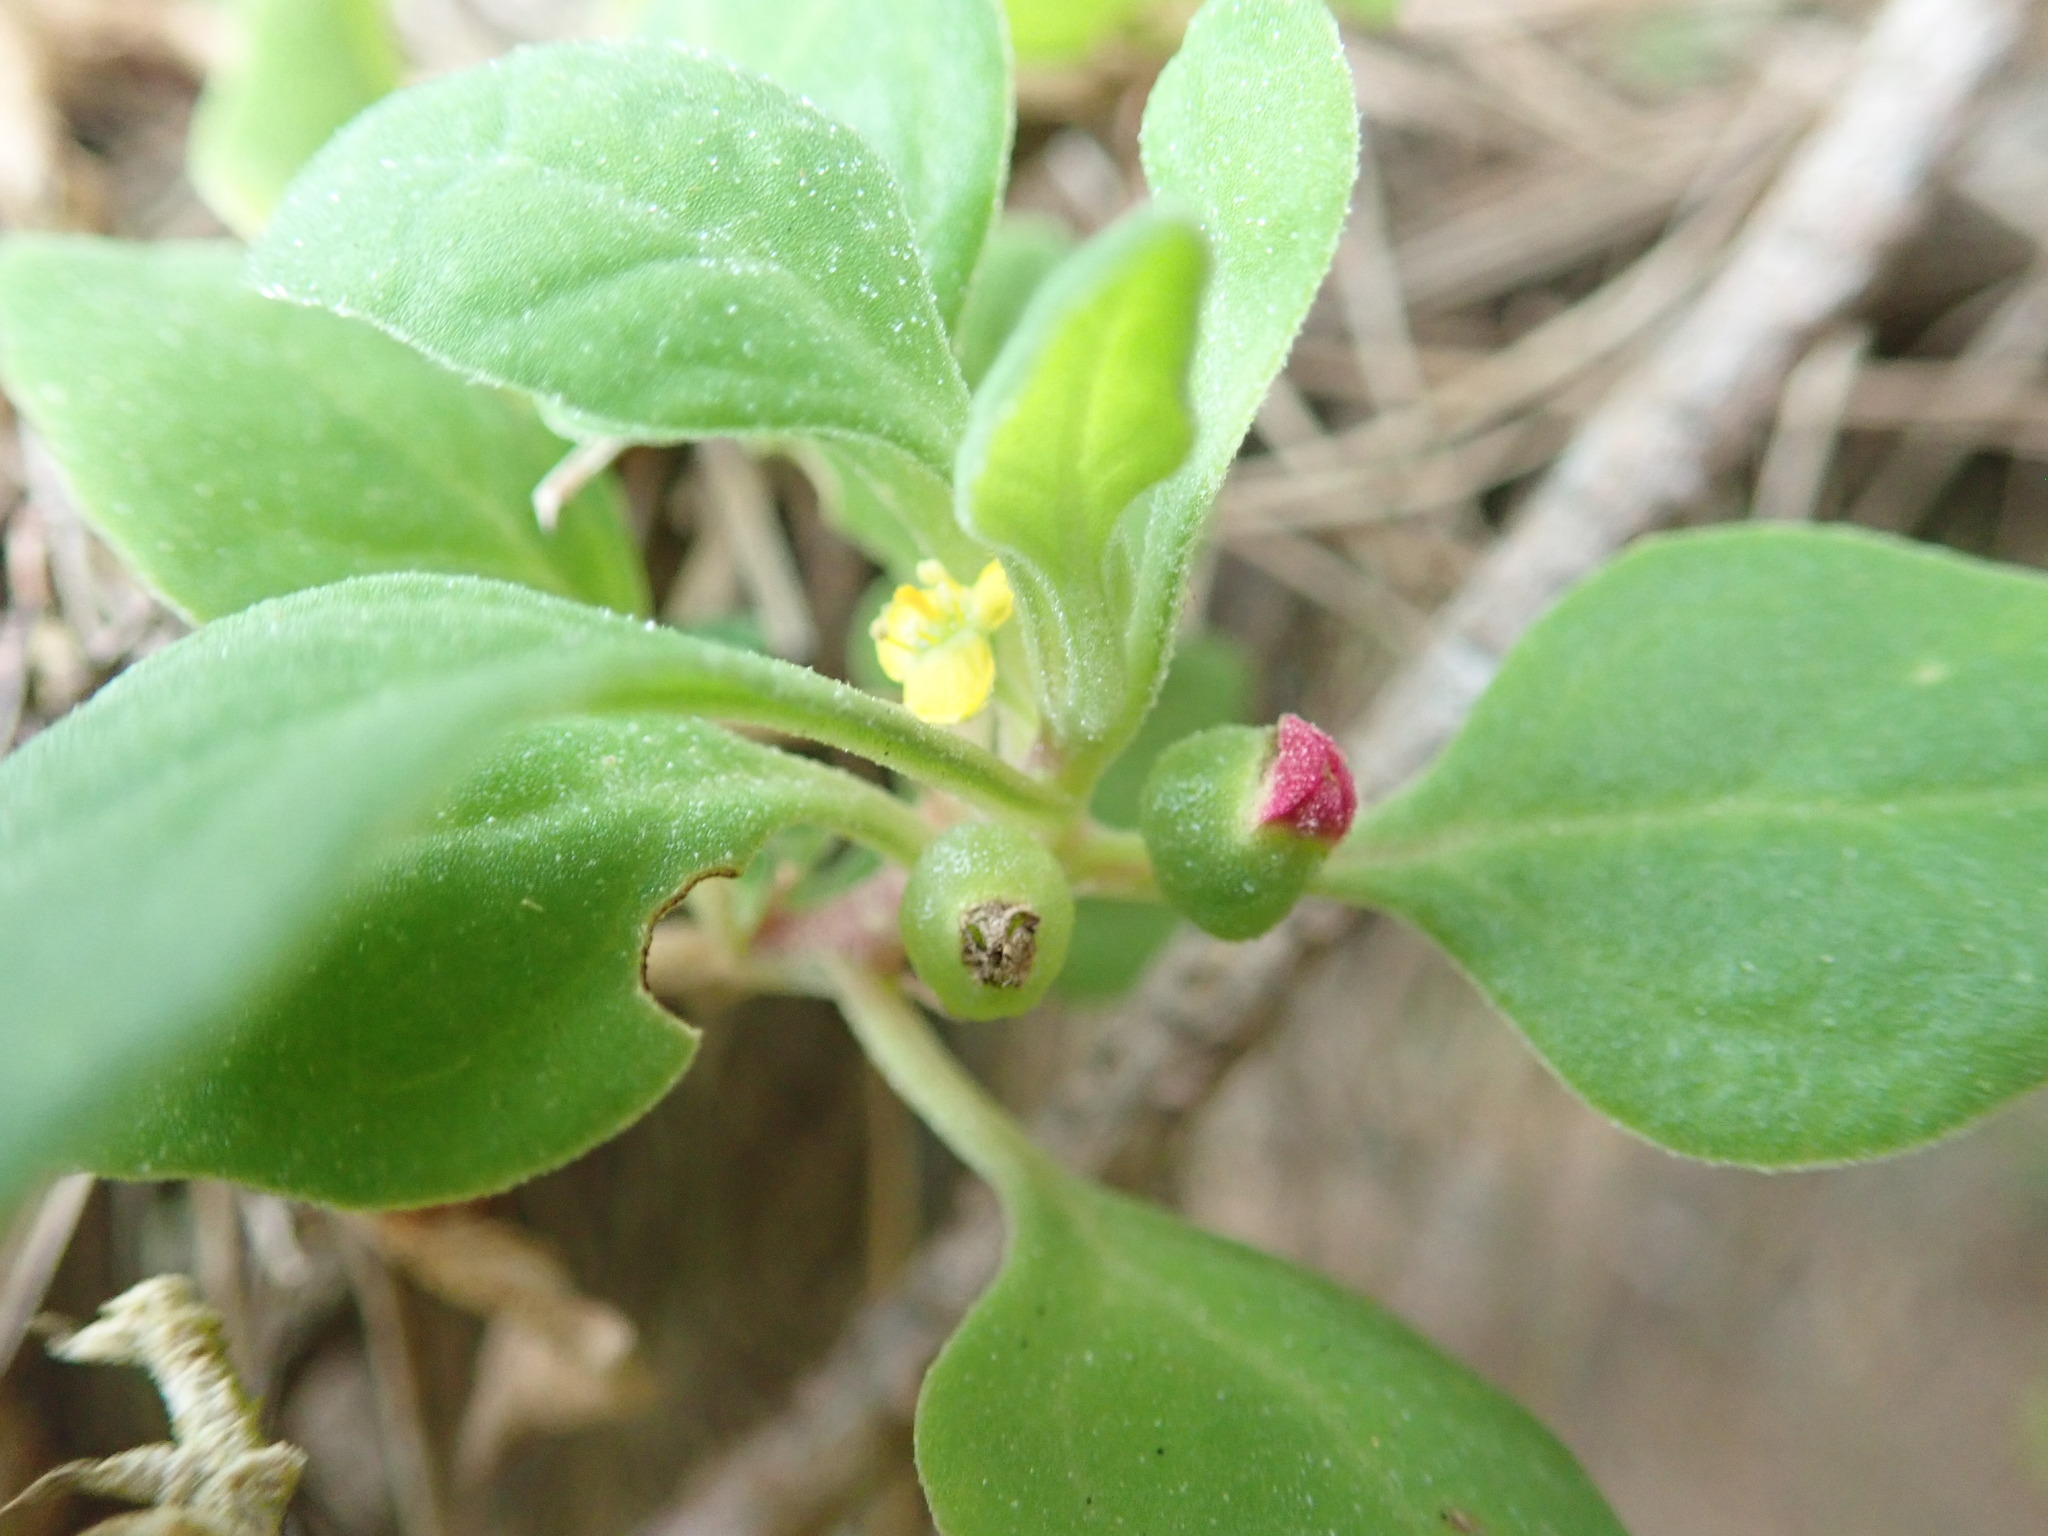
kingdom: Plantae
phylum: Tracheophyta
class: Magnoliopsida
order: Caryophyllales
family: Aizoaceae
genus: Tetragonia
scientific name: Tetragonia implexicoma
